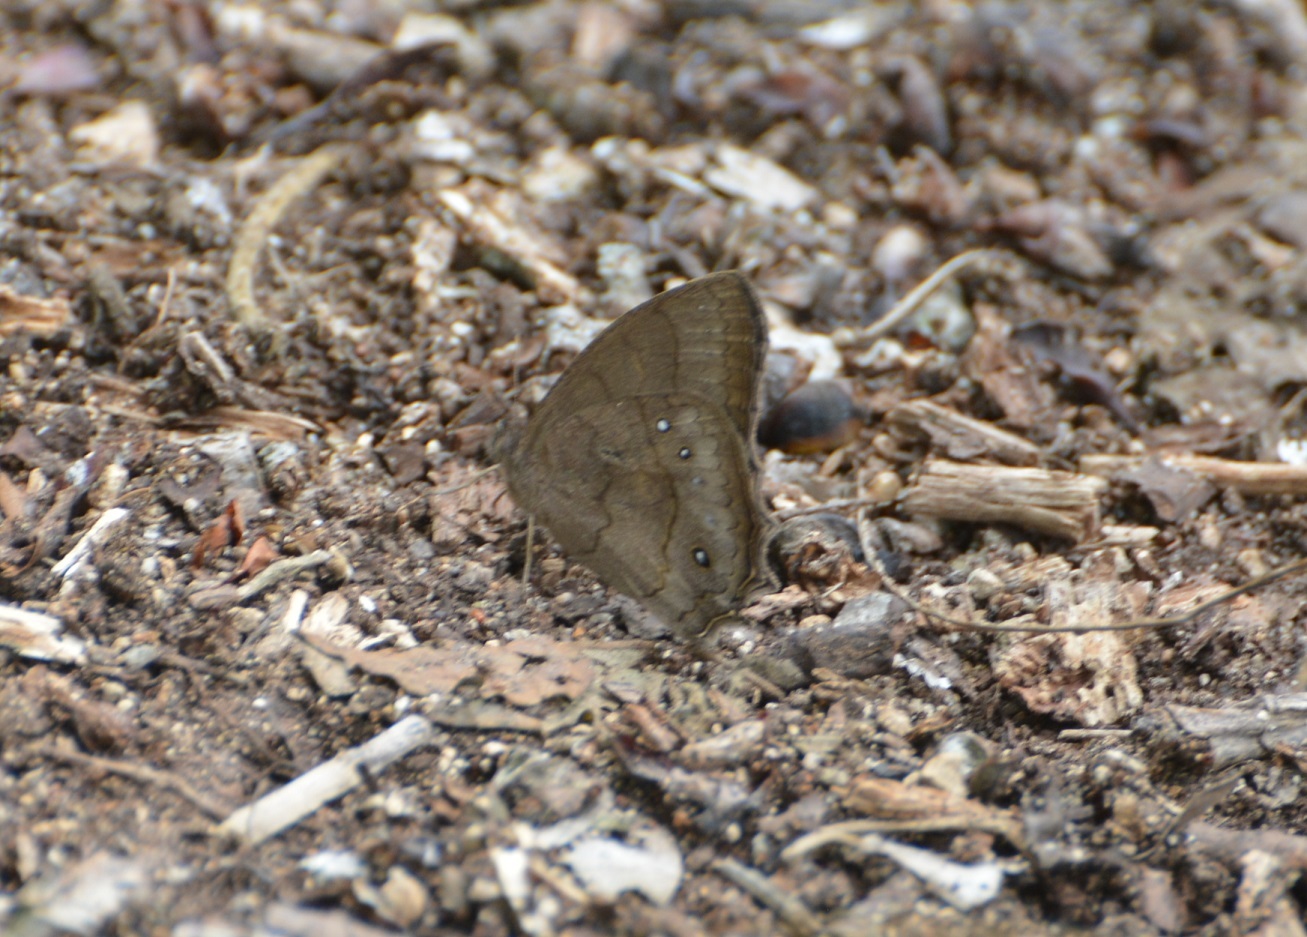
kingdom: Animalia
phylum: Arthropoda
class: Insecta
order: Lepidoptera
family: Nymphalidae
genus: Taygetina
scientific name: Taygetina kerea
